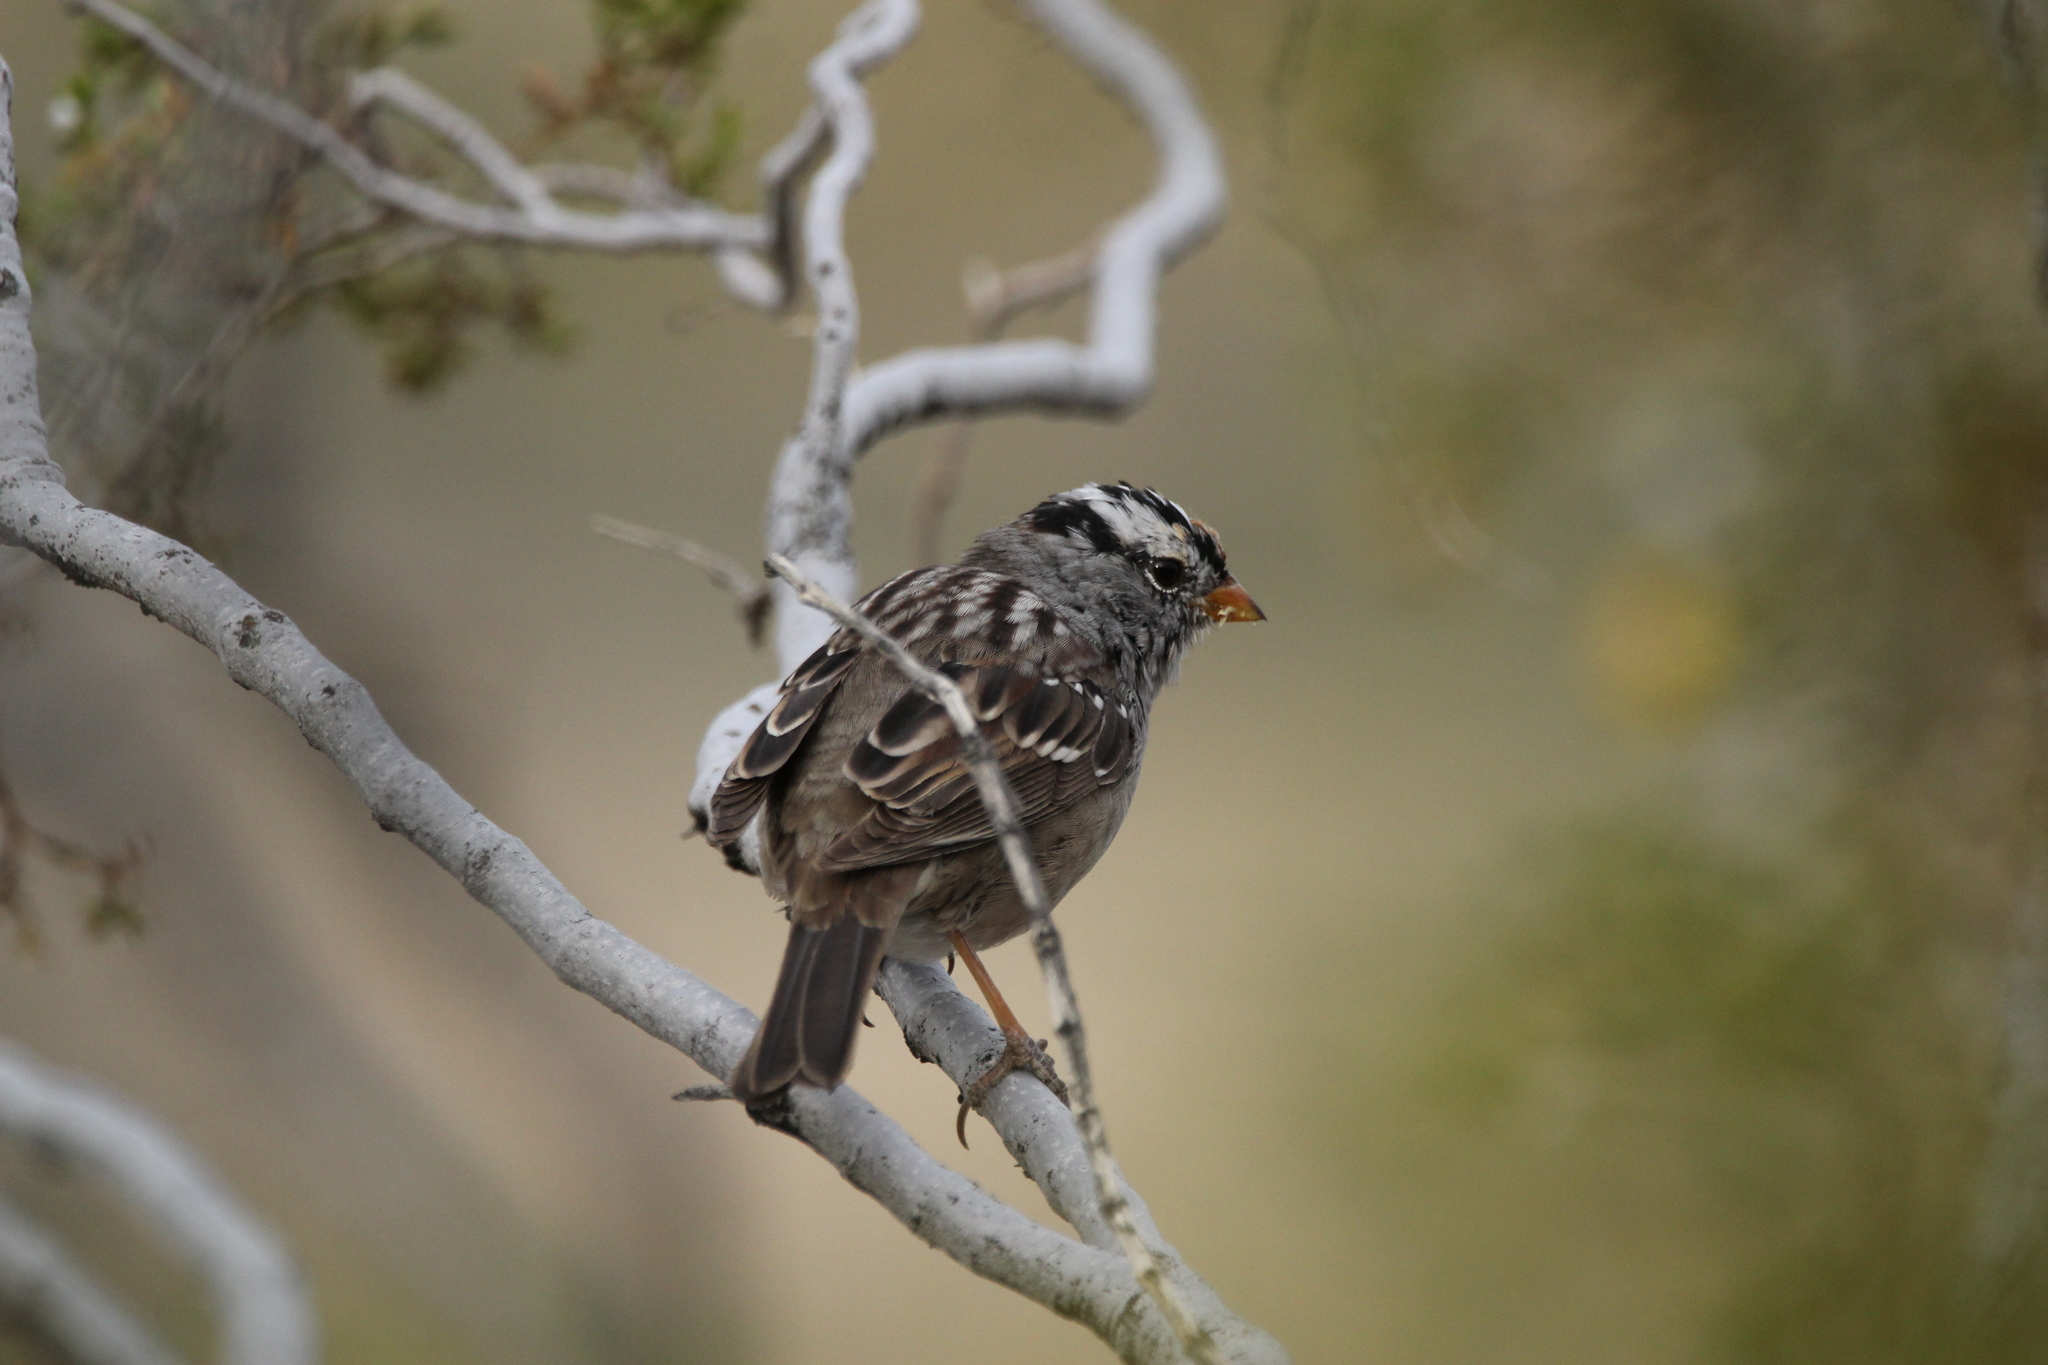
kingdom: Animalia
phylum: Chordata
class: Aves
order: Passeriformes
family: Passerellidae
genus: Zonotrichia
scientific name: Zonotrichia leucophrys
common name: White-crowned sparrow
